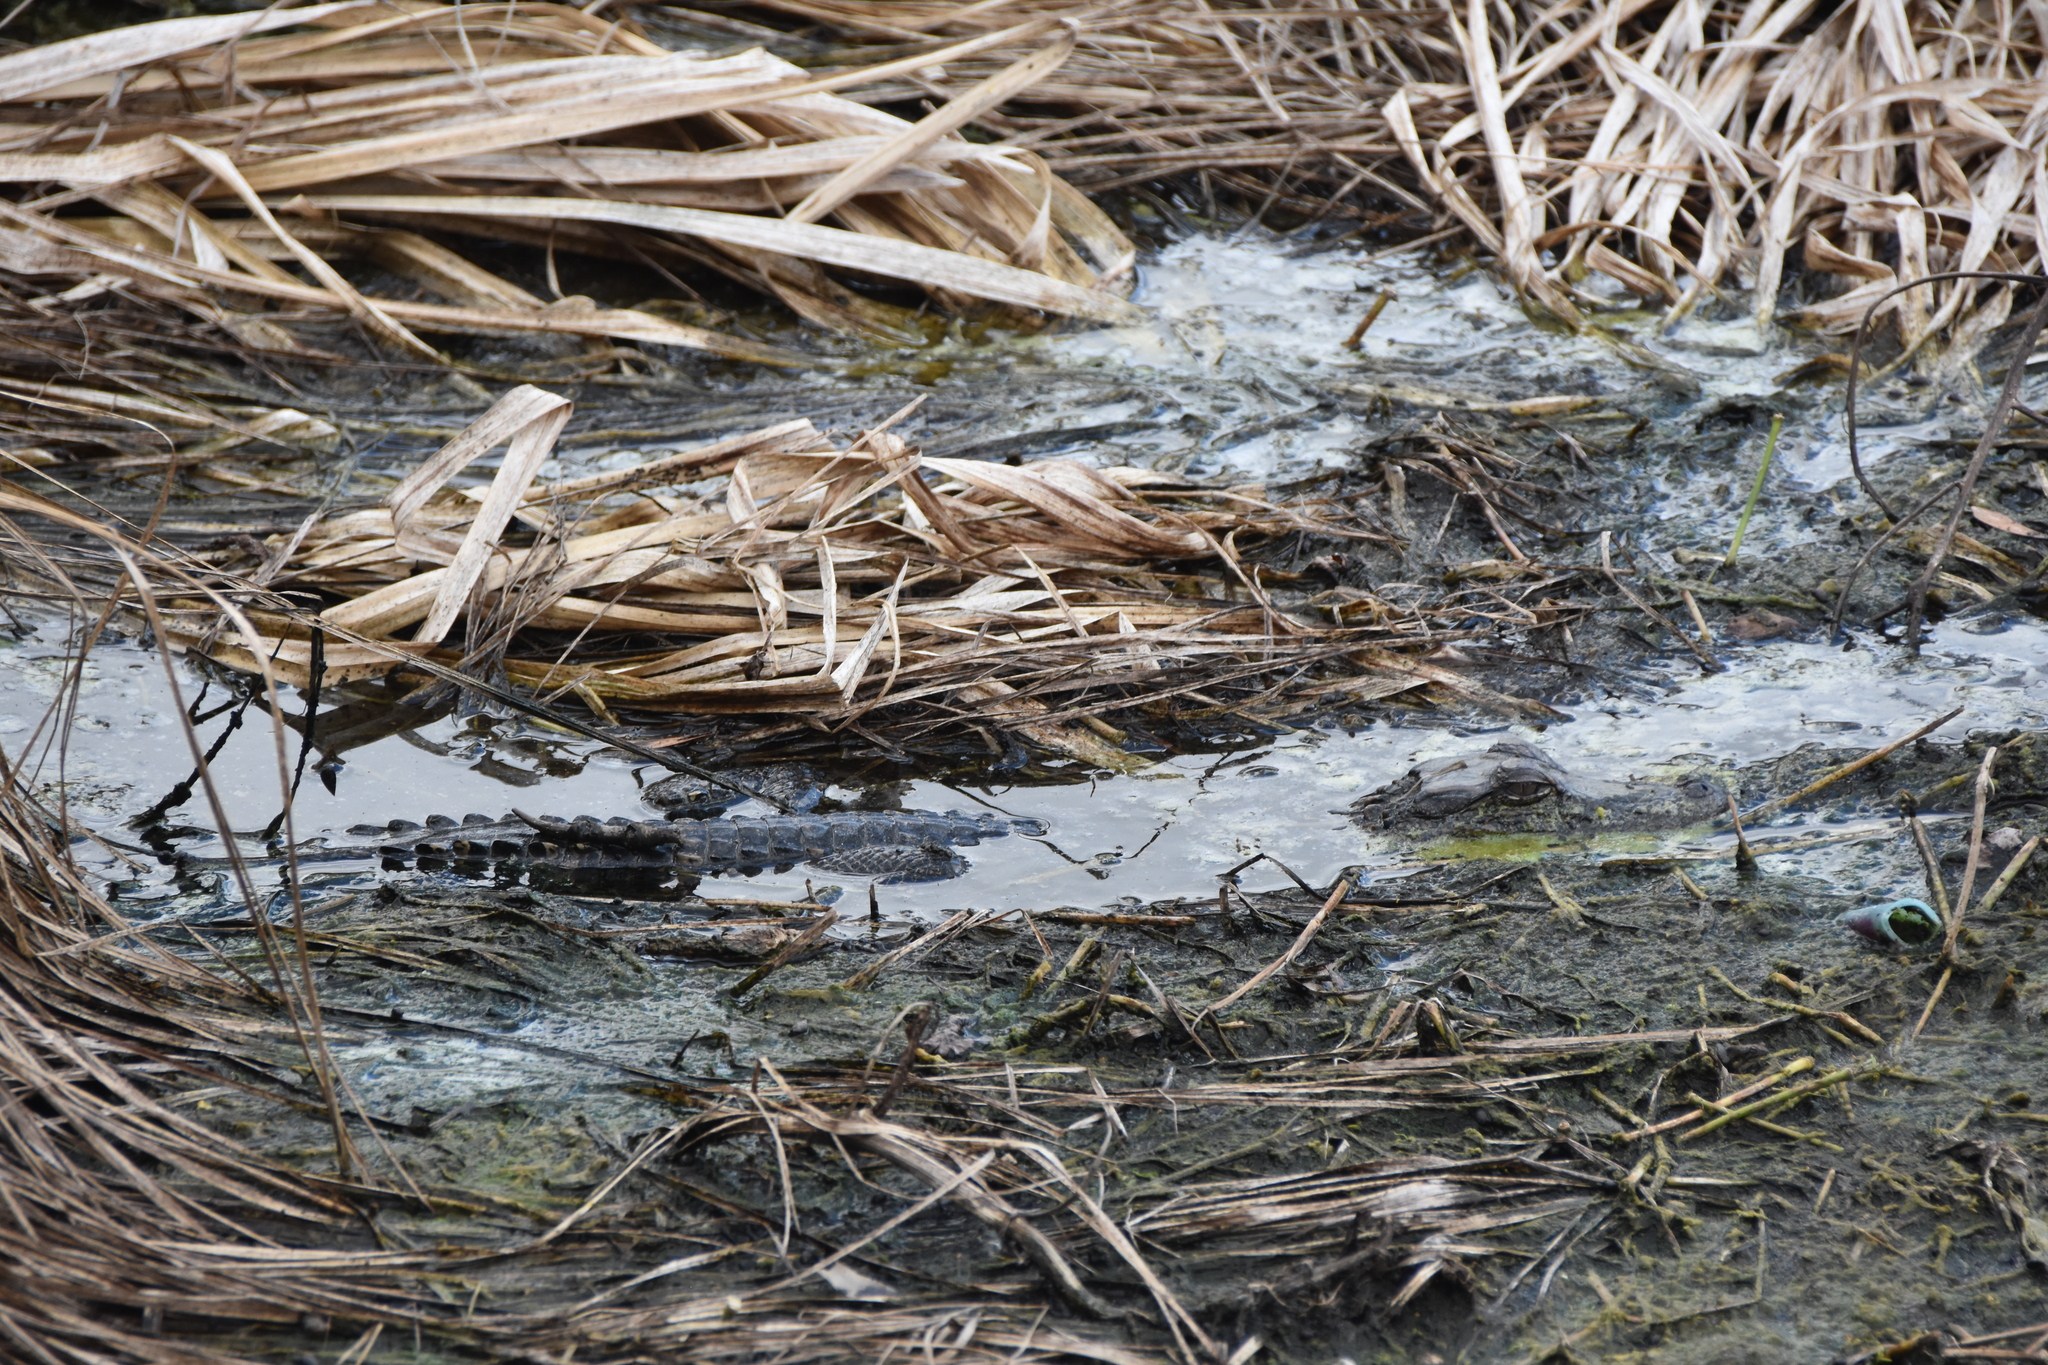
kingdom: Animalia
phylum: Chordata
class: Crocodylia
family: Alligatoridae
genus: Alligator
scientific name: Alligator mississippiensis
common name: American alligator
